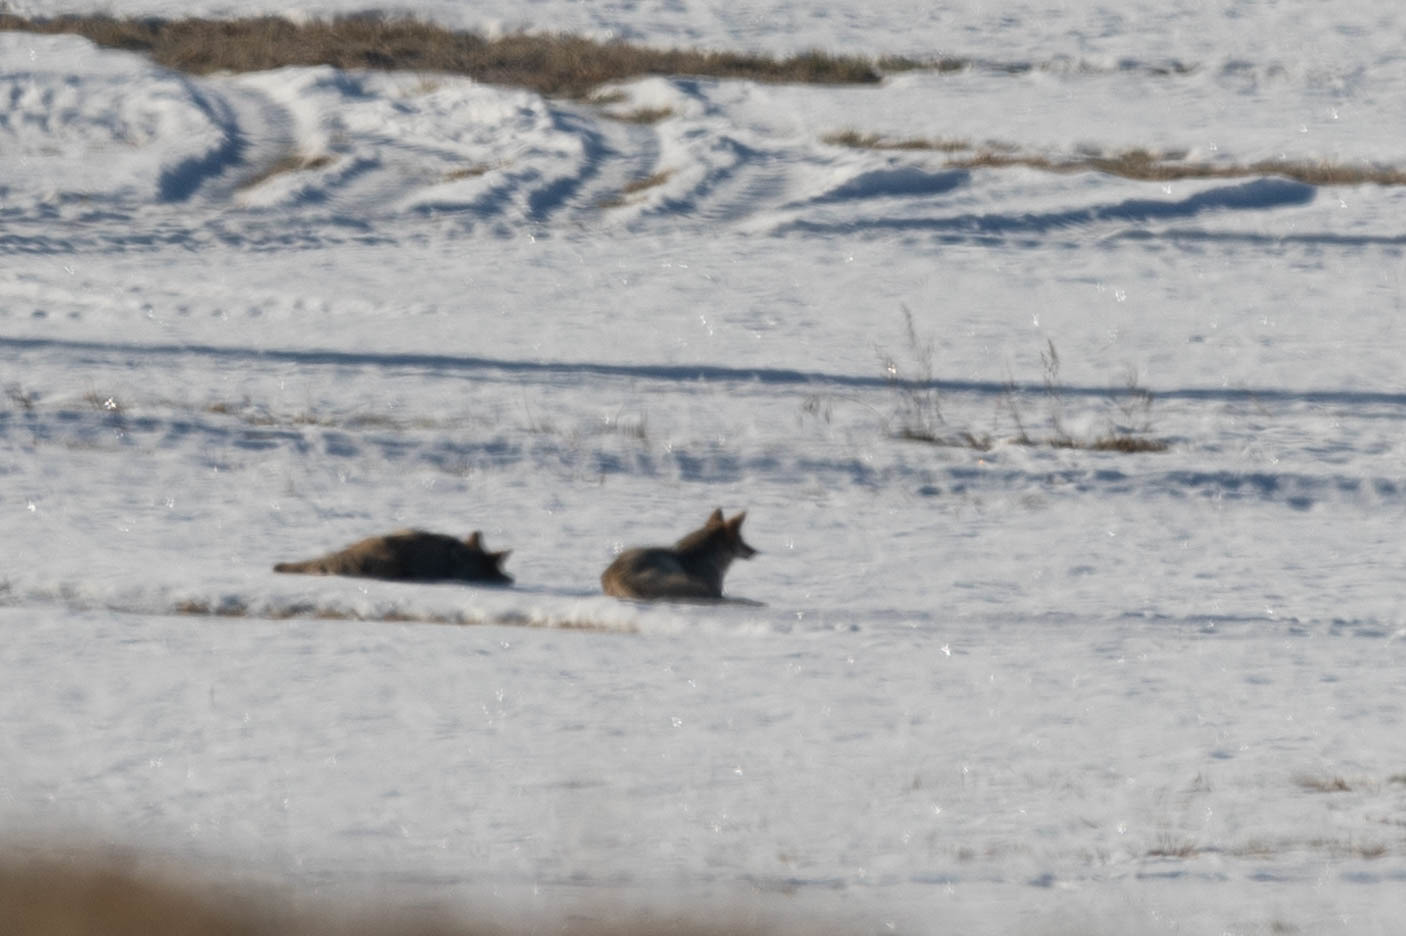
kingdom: Animalia
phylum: Chordata
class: Mammalia
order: Carnivora
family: Canidae
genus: Canis
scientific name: Canis latrans
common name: Coyote
